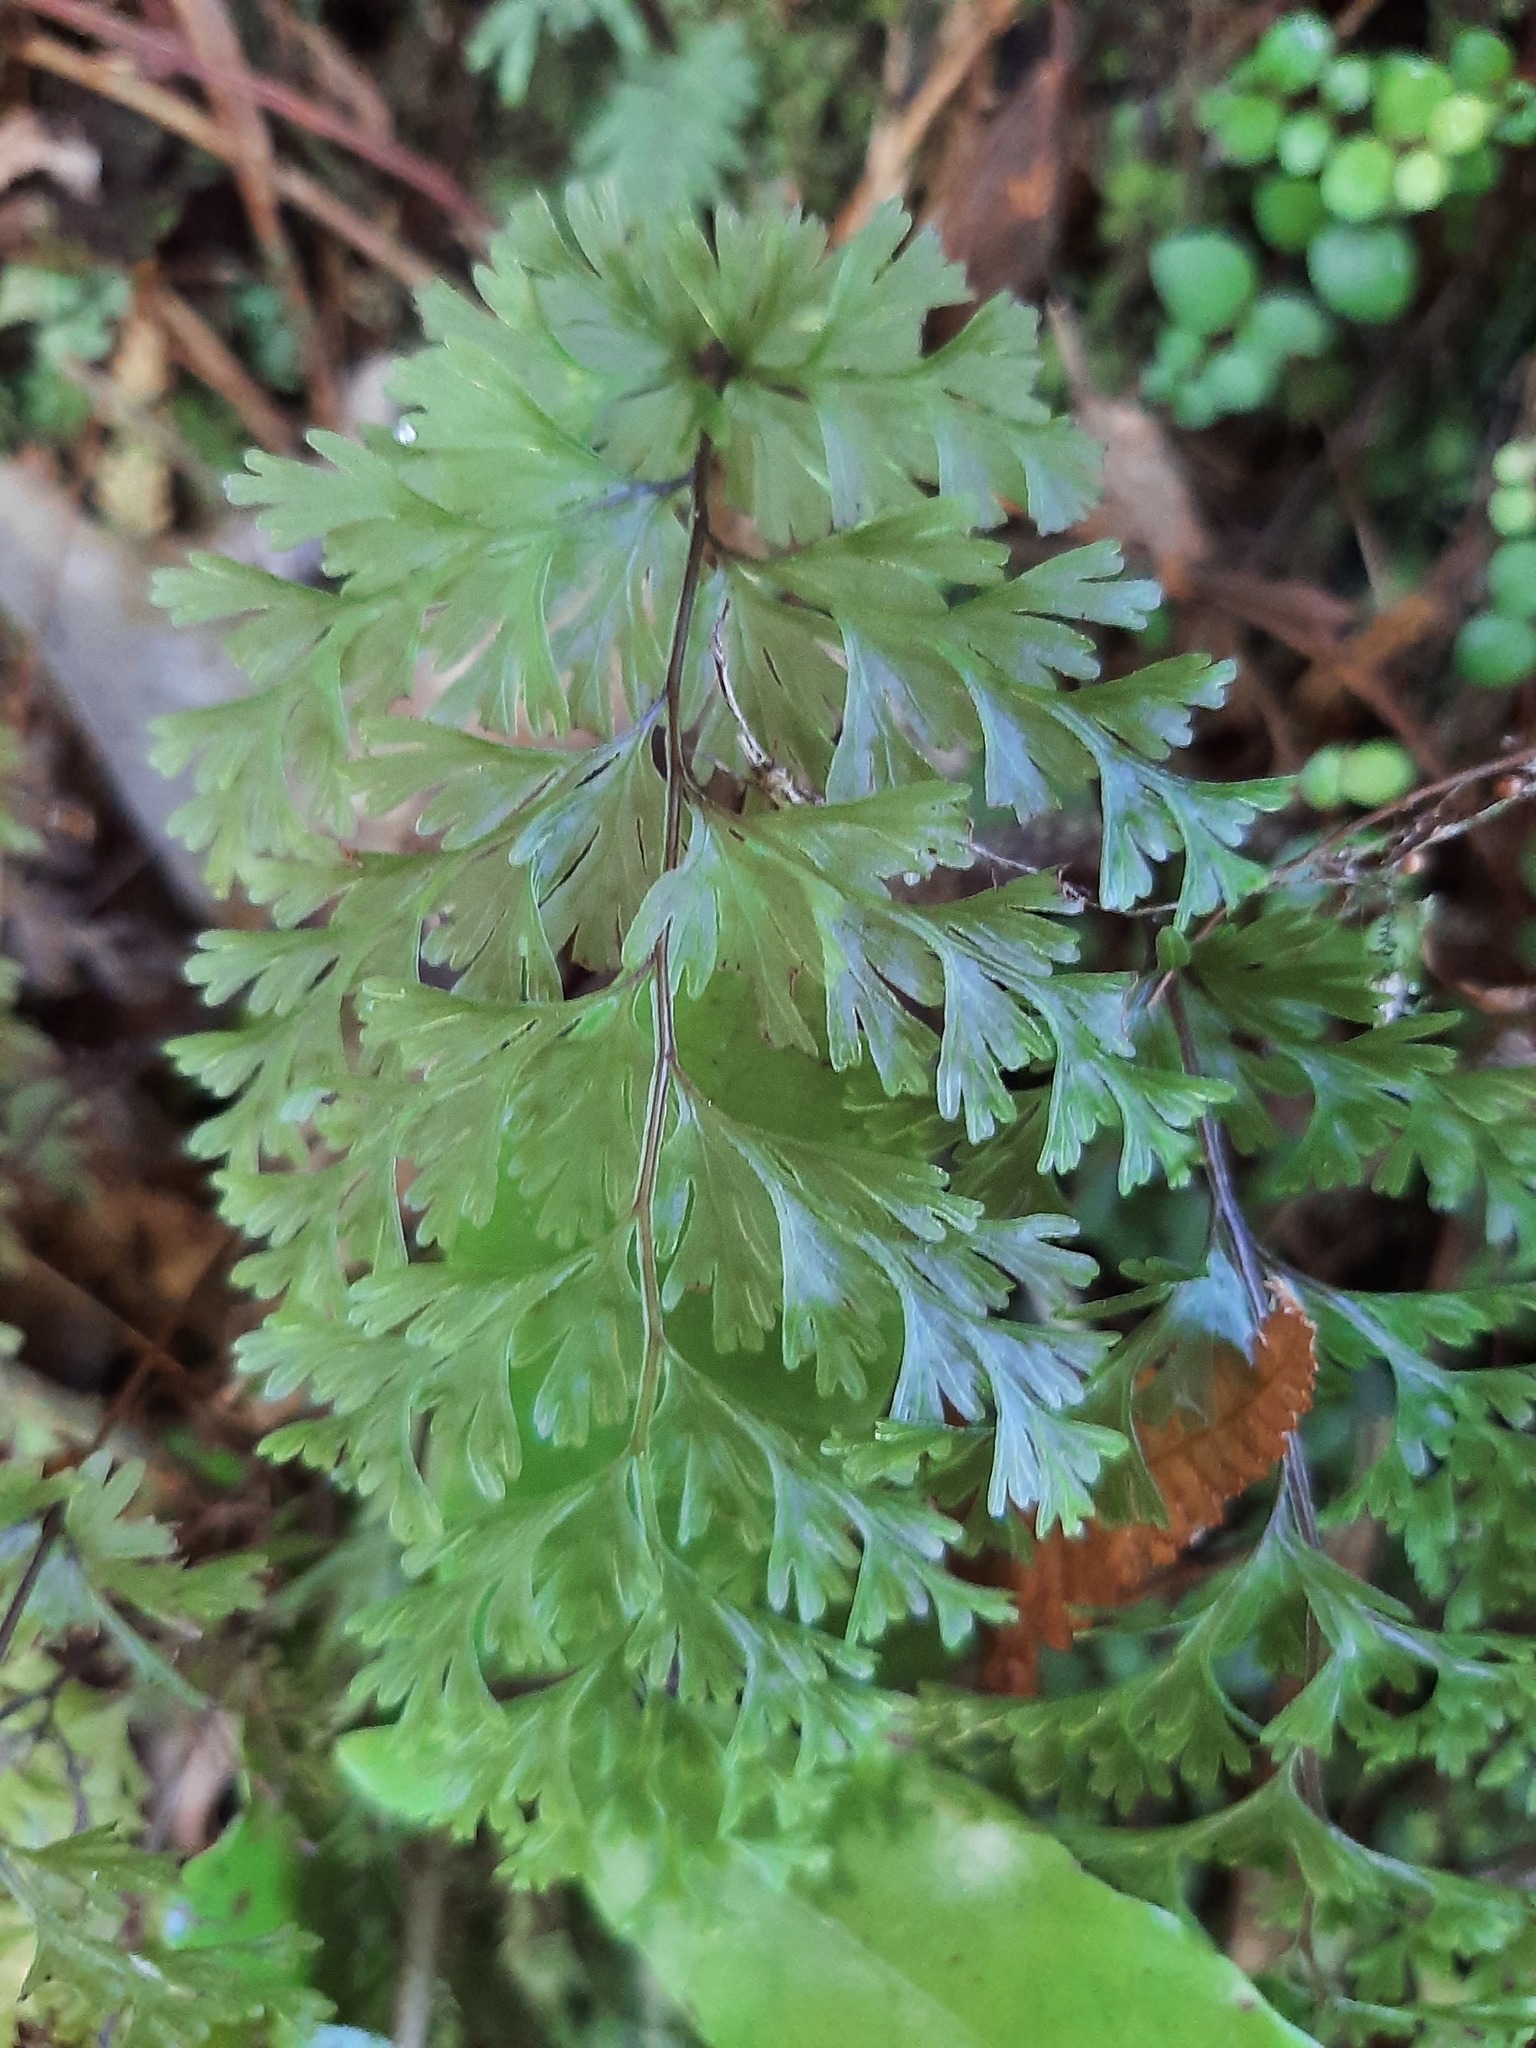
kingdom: Plantae
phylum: Tracheophyta
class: Polypodiopsida
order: Hymenophyllales
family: Hymenophyllaceae
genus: Hymenophyllum
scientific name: Hymenophyllum flabellatum
